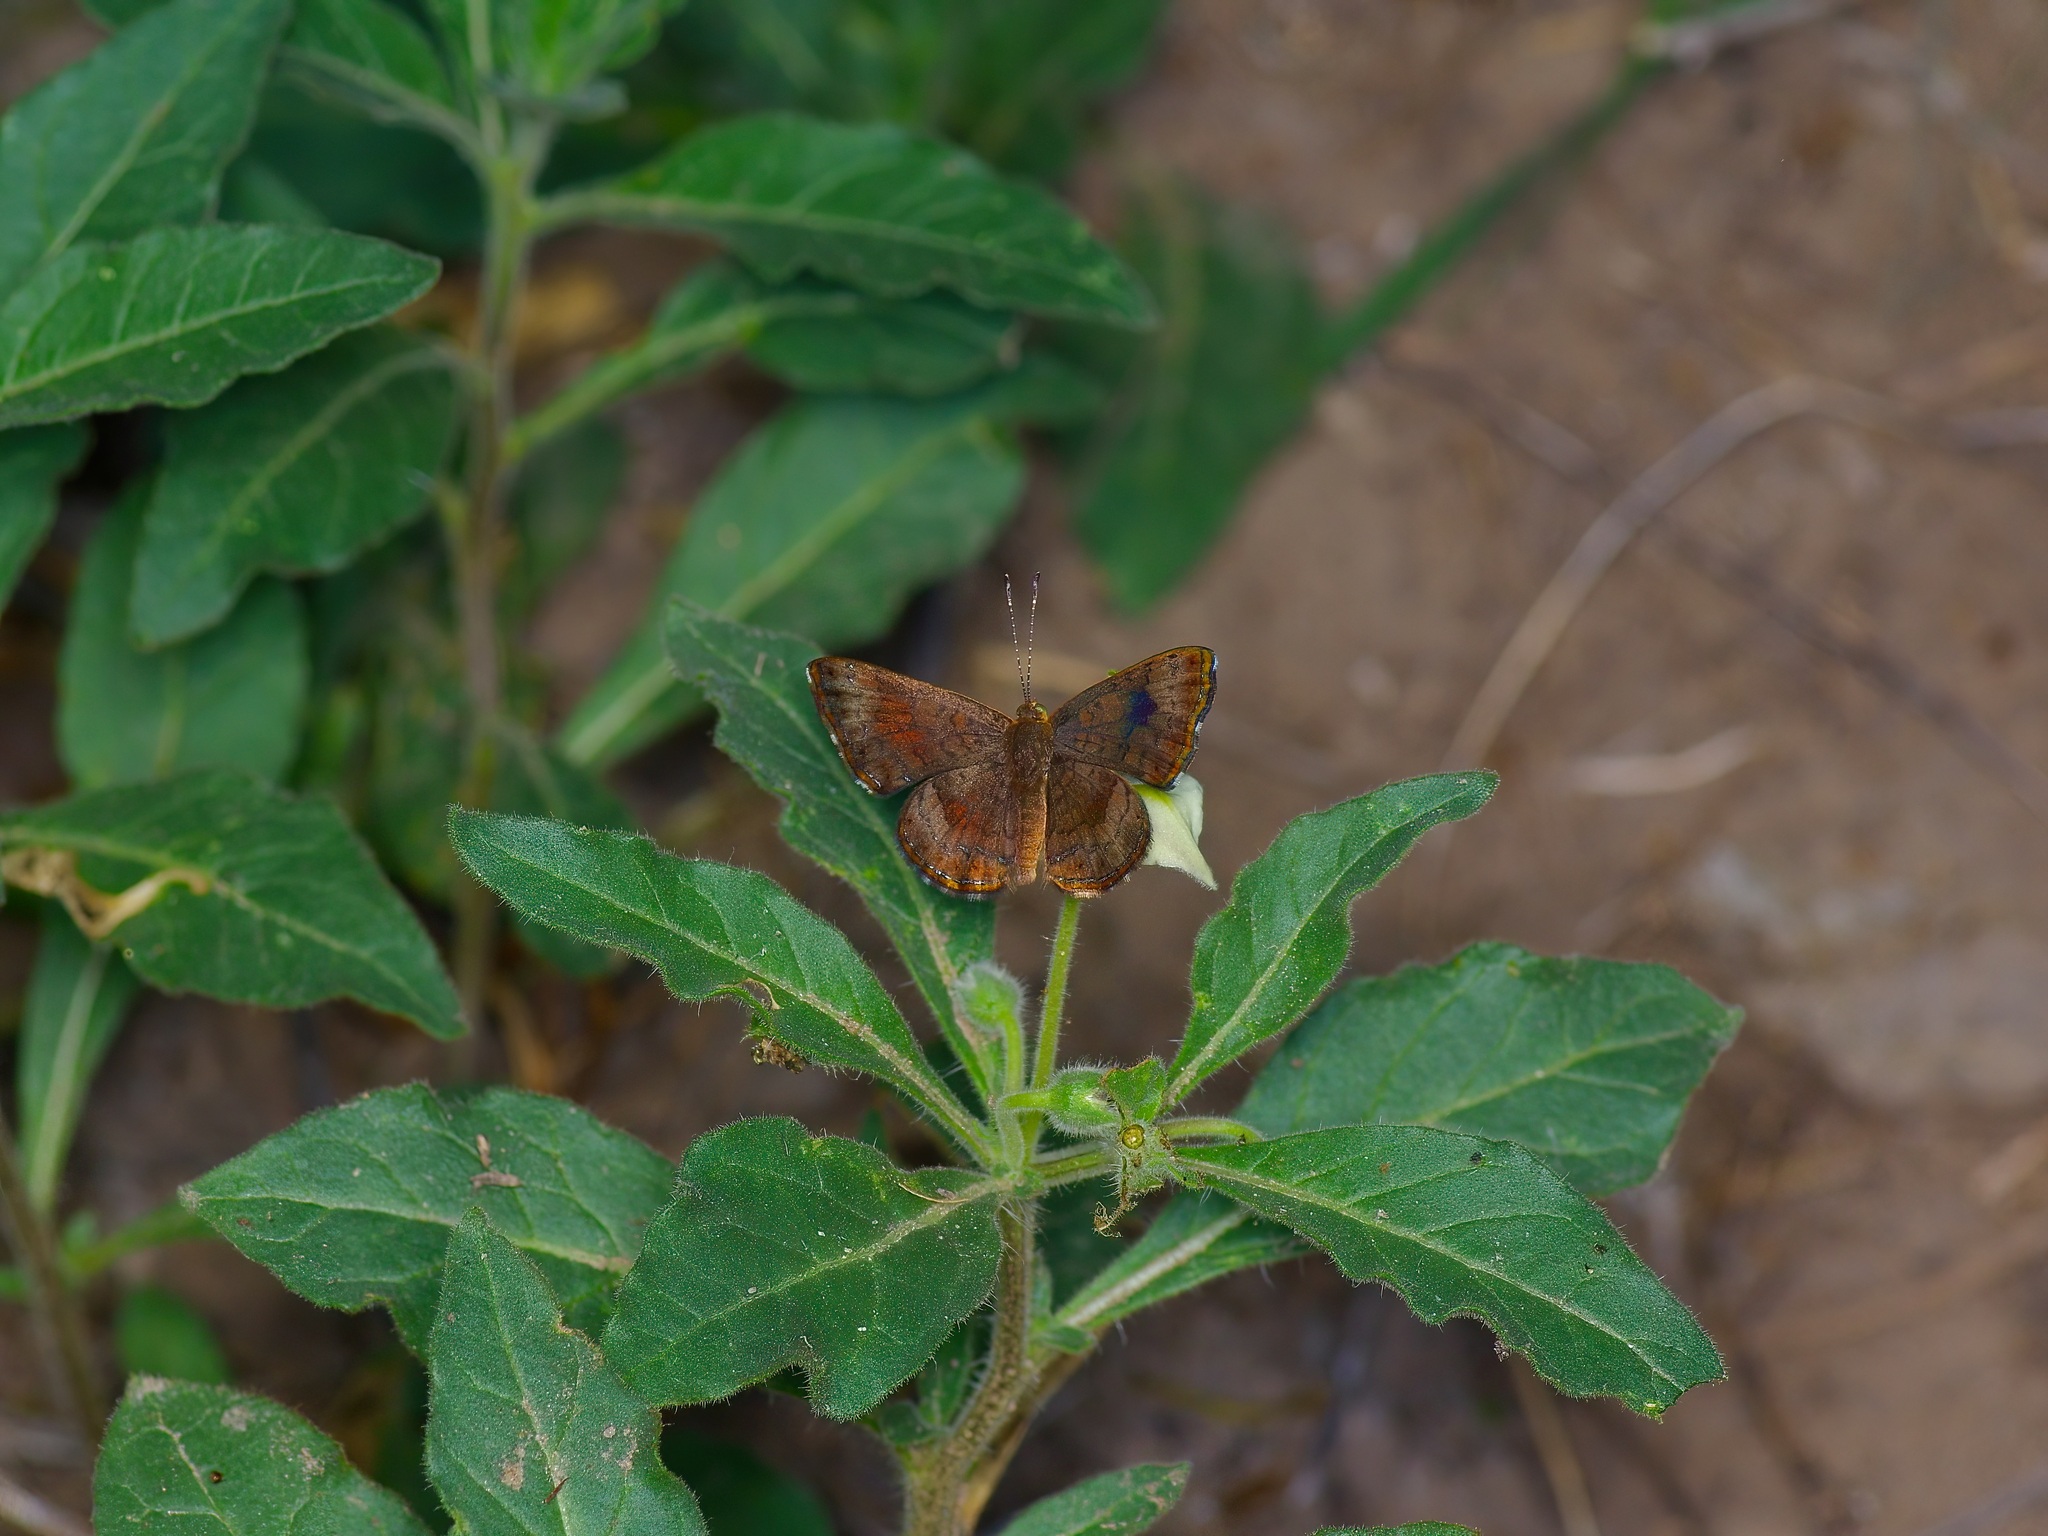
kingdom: Animalia
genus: Calephelis
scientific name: Calephelis nemesis
